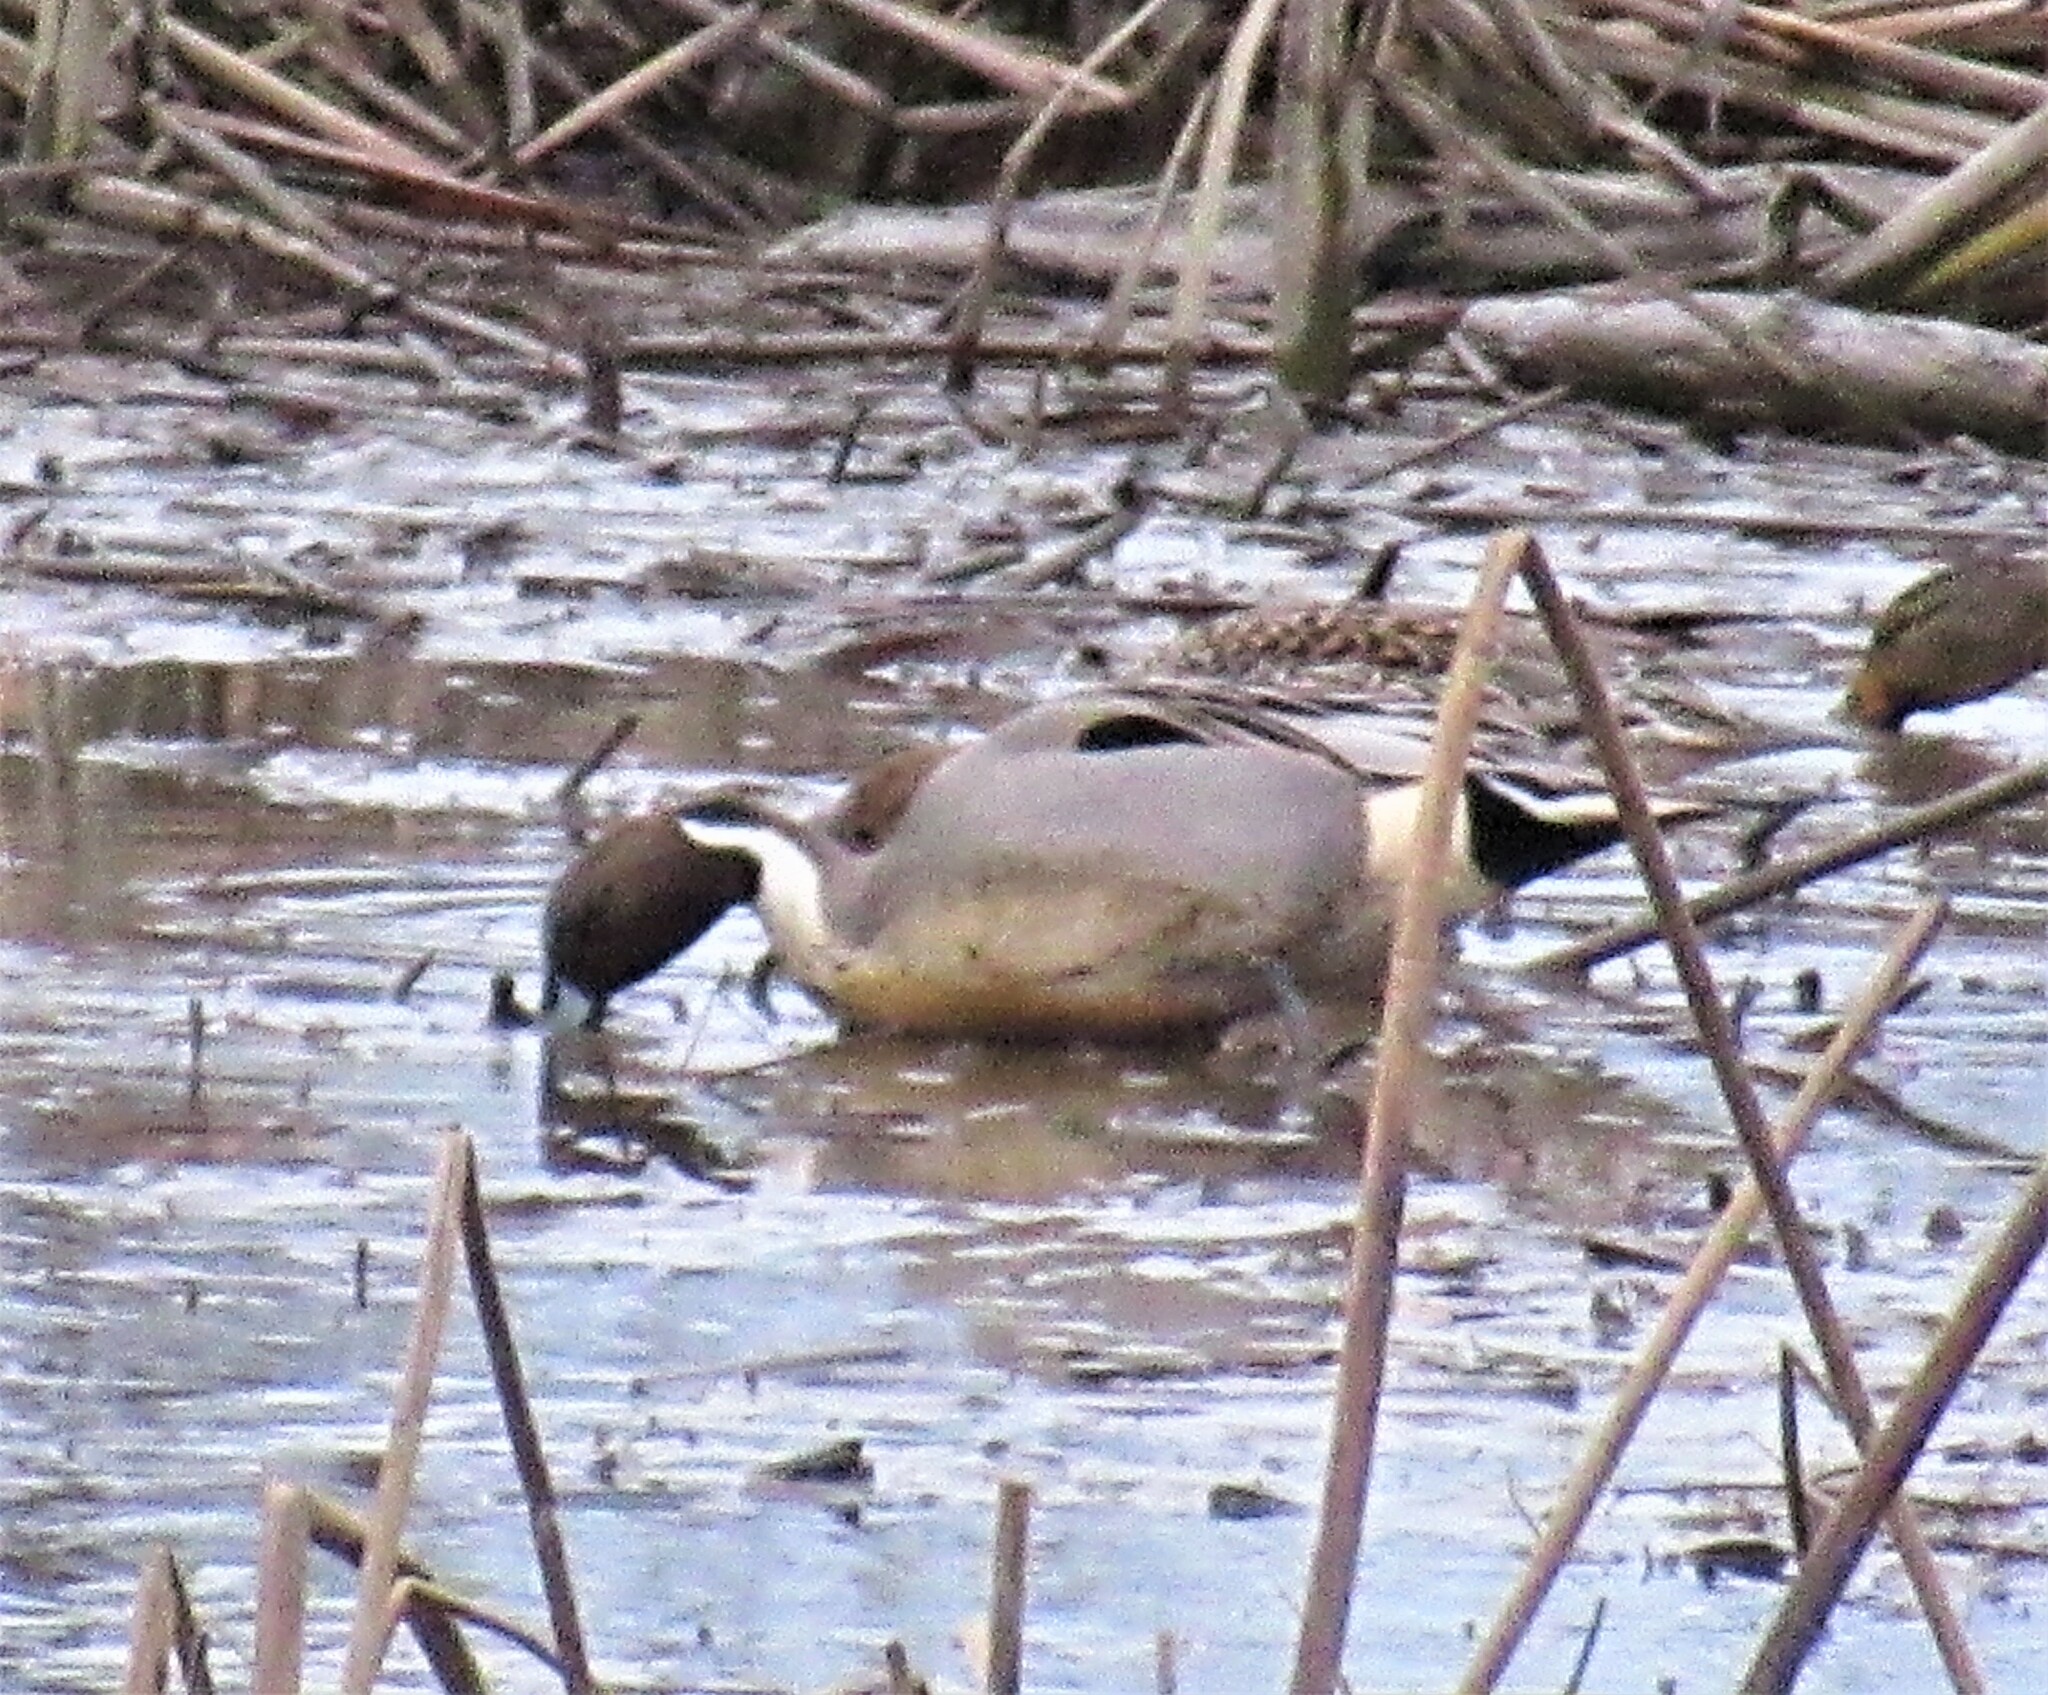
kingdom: Animalia
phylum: Chordata
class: Aves
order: Anseriformes
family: Anatidae
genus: Anas
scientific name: Anas acuta
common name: Northern pintail
